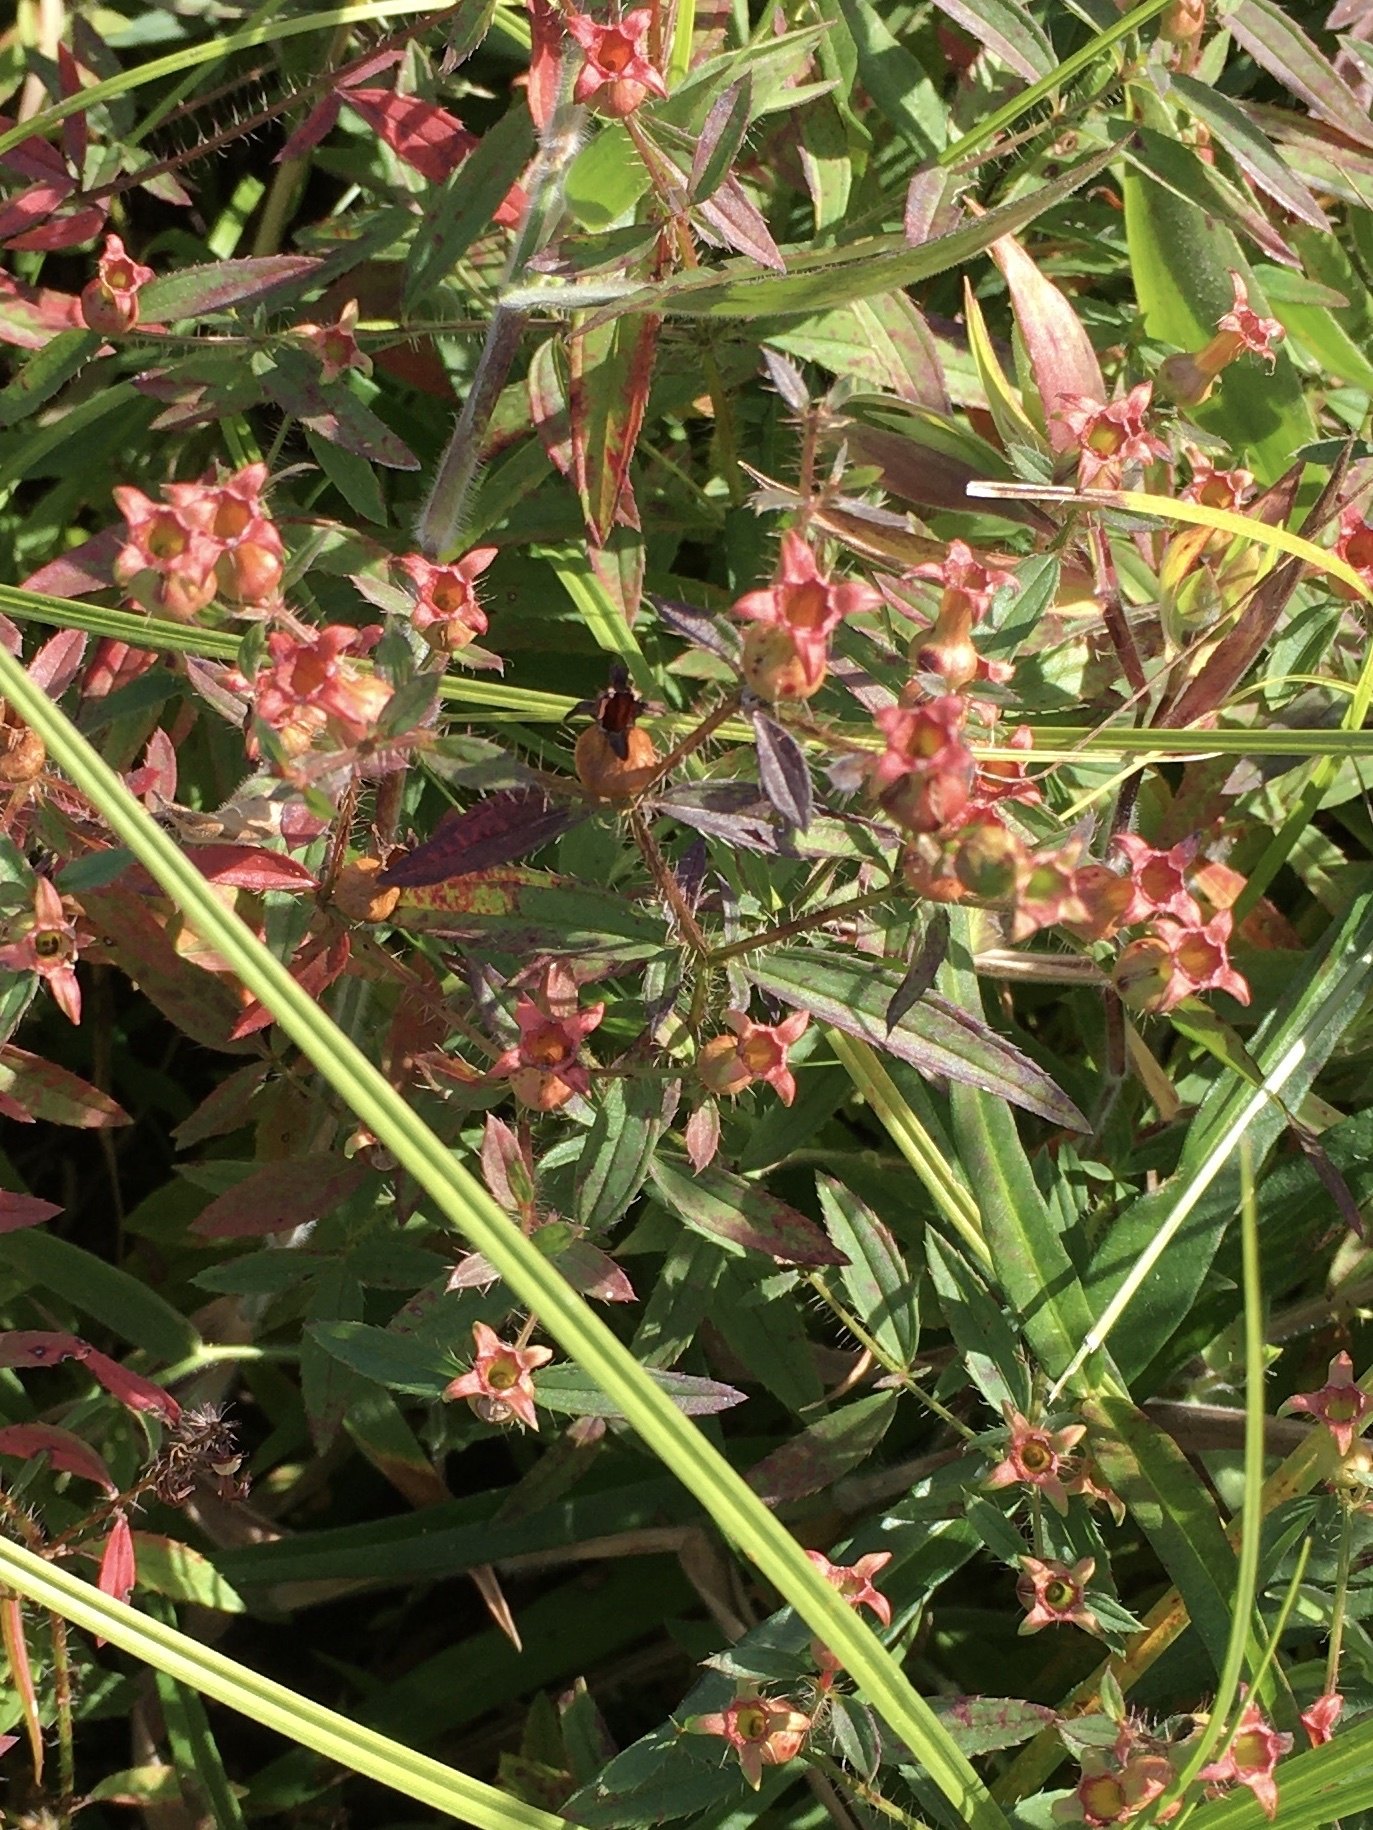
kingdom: Plantae
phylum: Tracheophyta
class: Magnoliopsida
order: Myrtales
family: Melastomataceae
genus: Rhexia
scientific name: Rhexia mariana
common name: Dull meadow-pitcher
